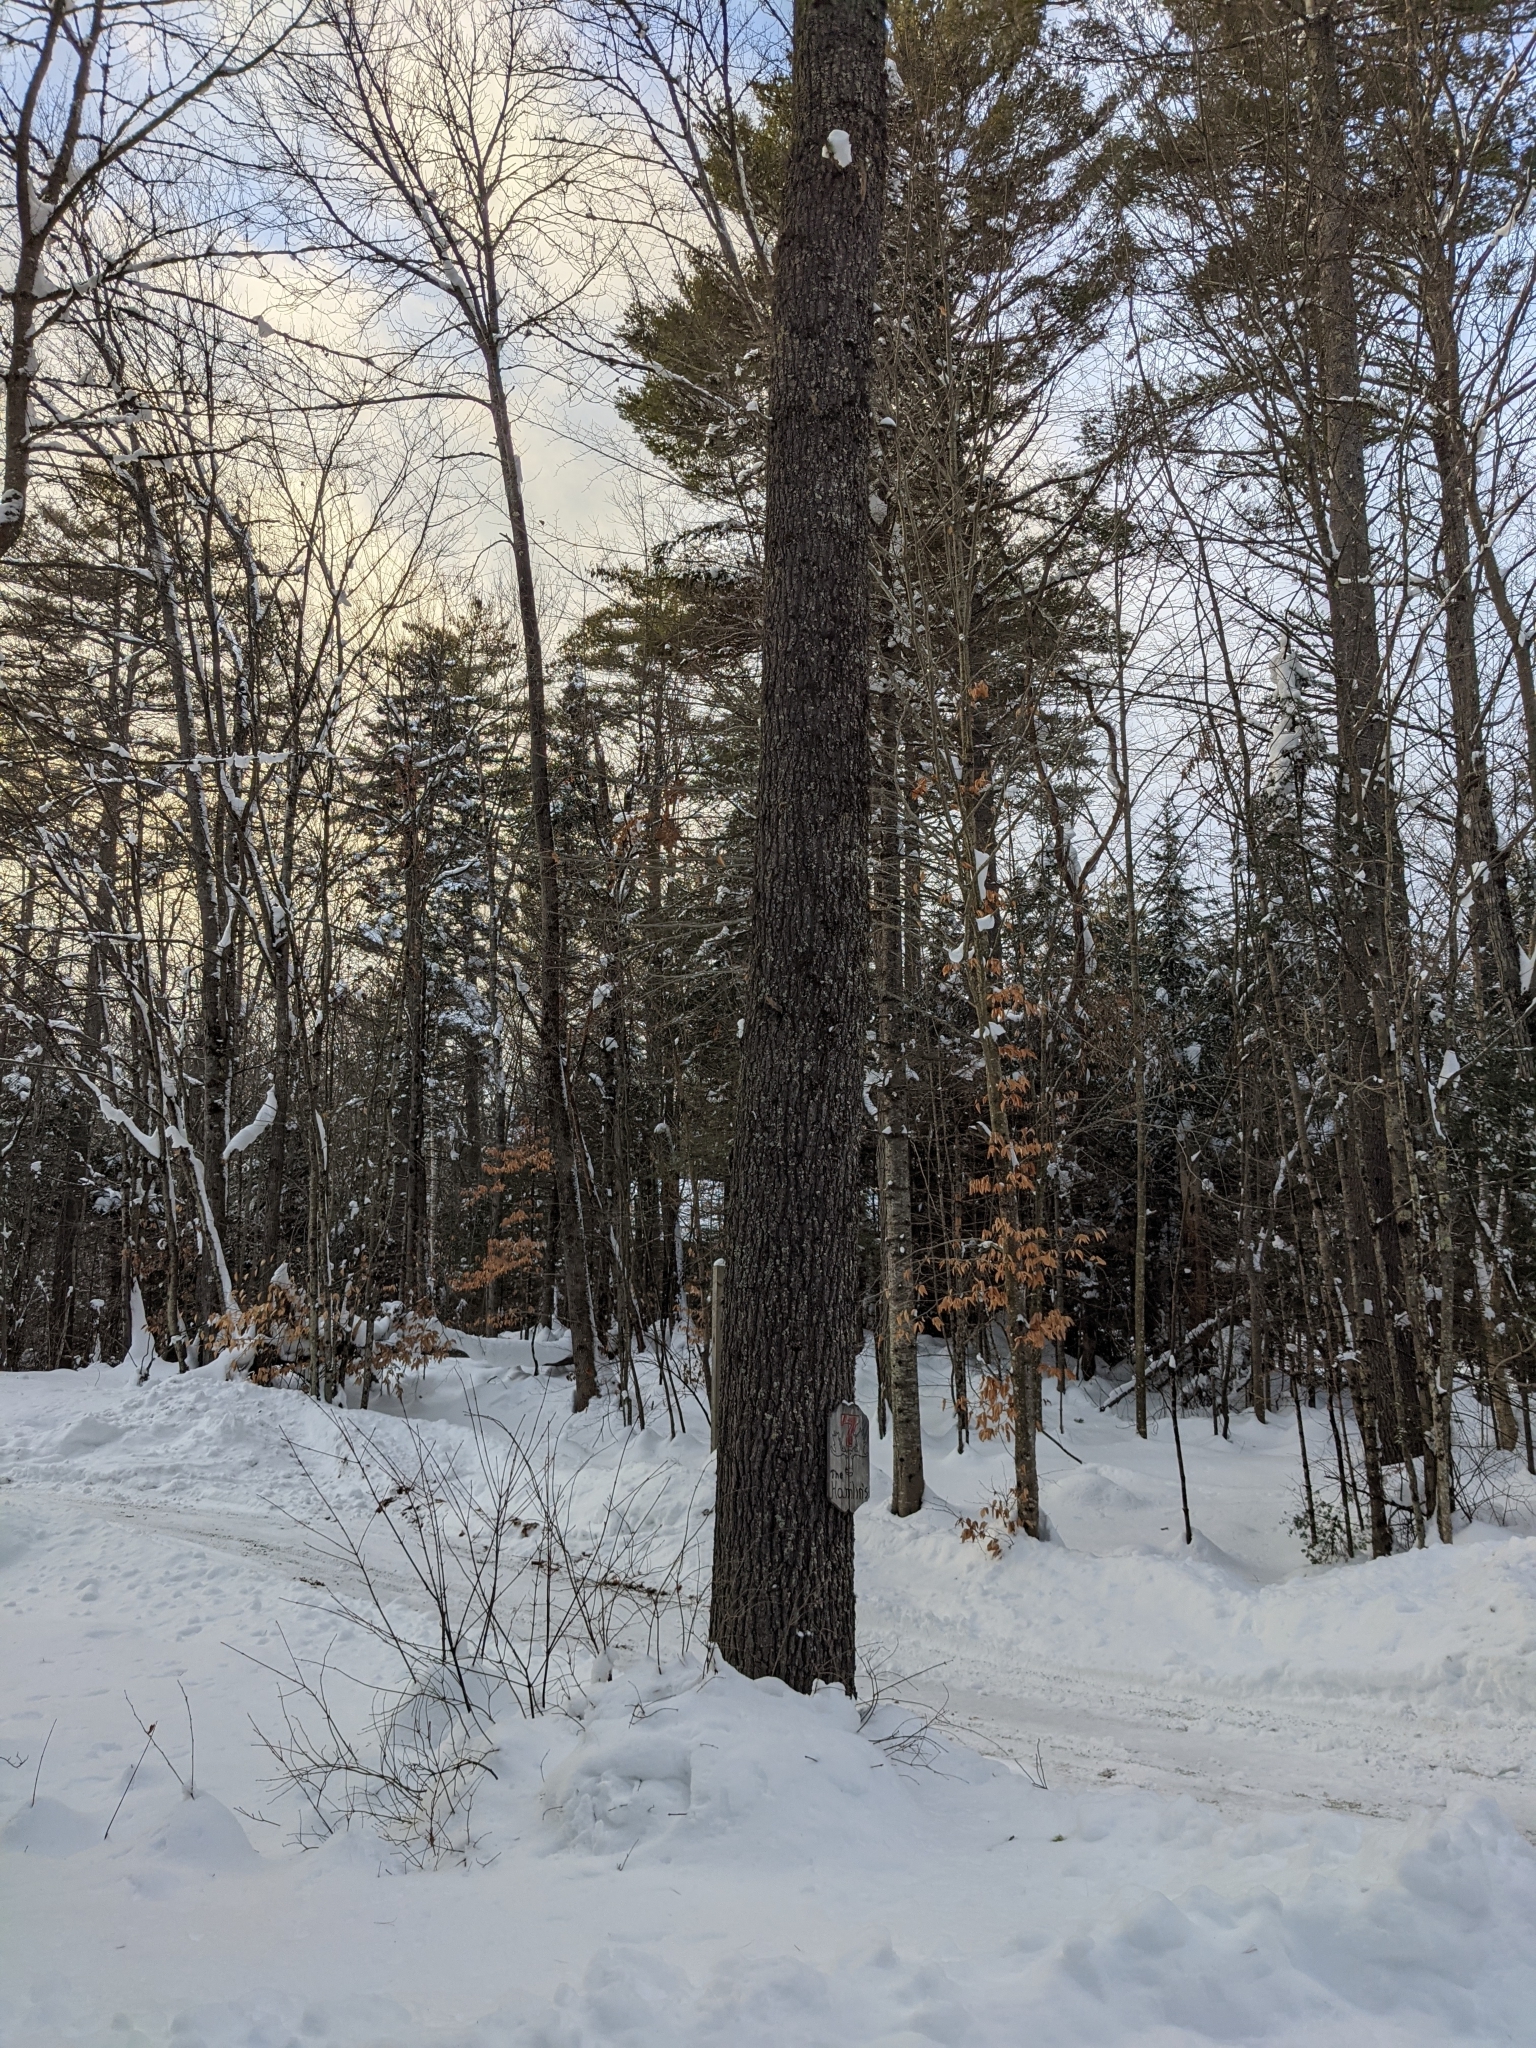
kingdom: Plantae
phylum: Tracheophyta
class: Pinopsida
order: Pinales
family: Pinaceae
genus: Pinus
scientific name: Pinus strobus
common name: Weymouth pine
